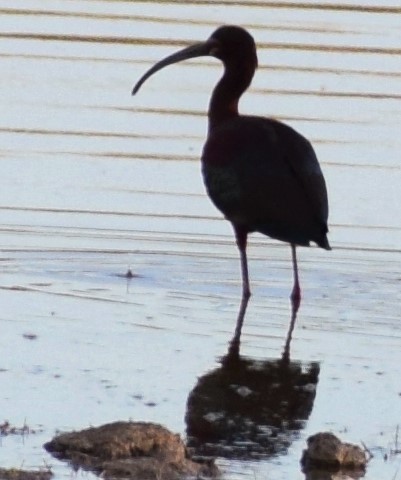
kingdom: Animalia
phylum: Chordata
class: Aves
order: Pelecaniformes
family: Threskiornithidae
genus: Plegadis
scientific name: Plegadis chihi
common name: White-faced ibis
